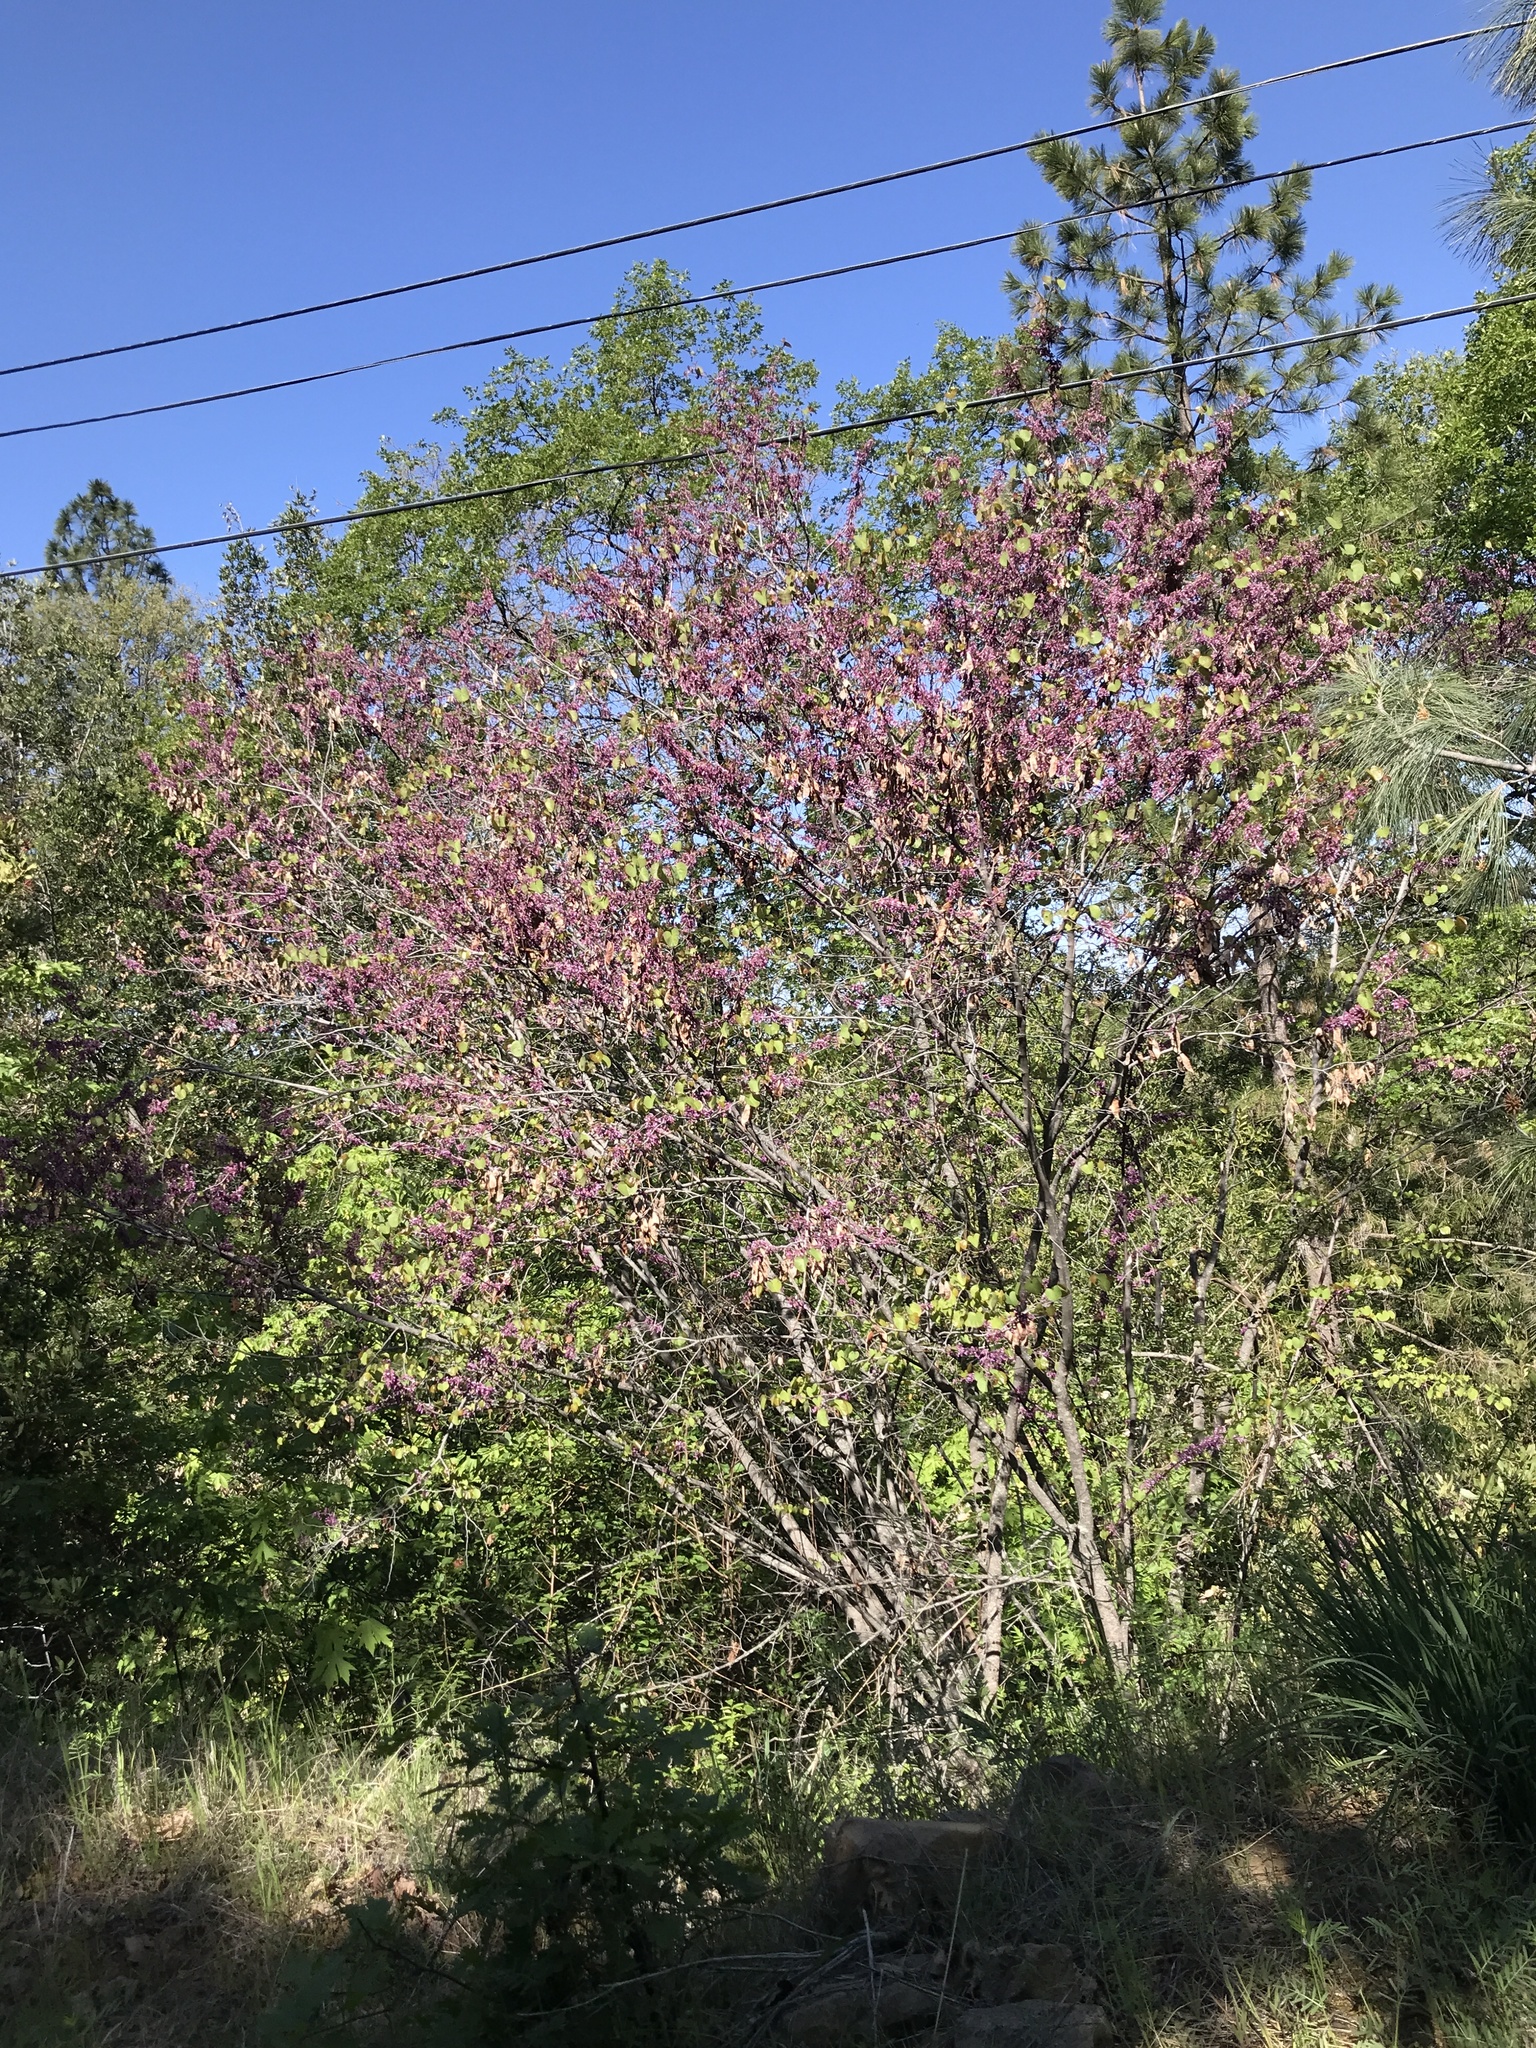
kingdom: Plantae
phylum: Tracheophyta
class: Magnoliopsida
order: Fabales
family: Fabaceae
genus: Cercis
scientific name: Cercis occidentalis
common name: California redbud
